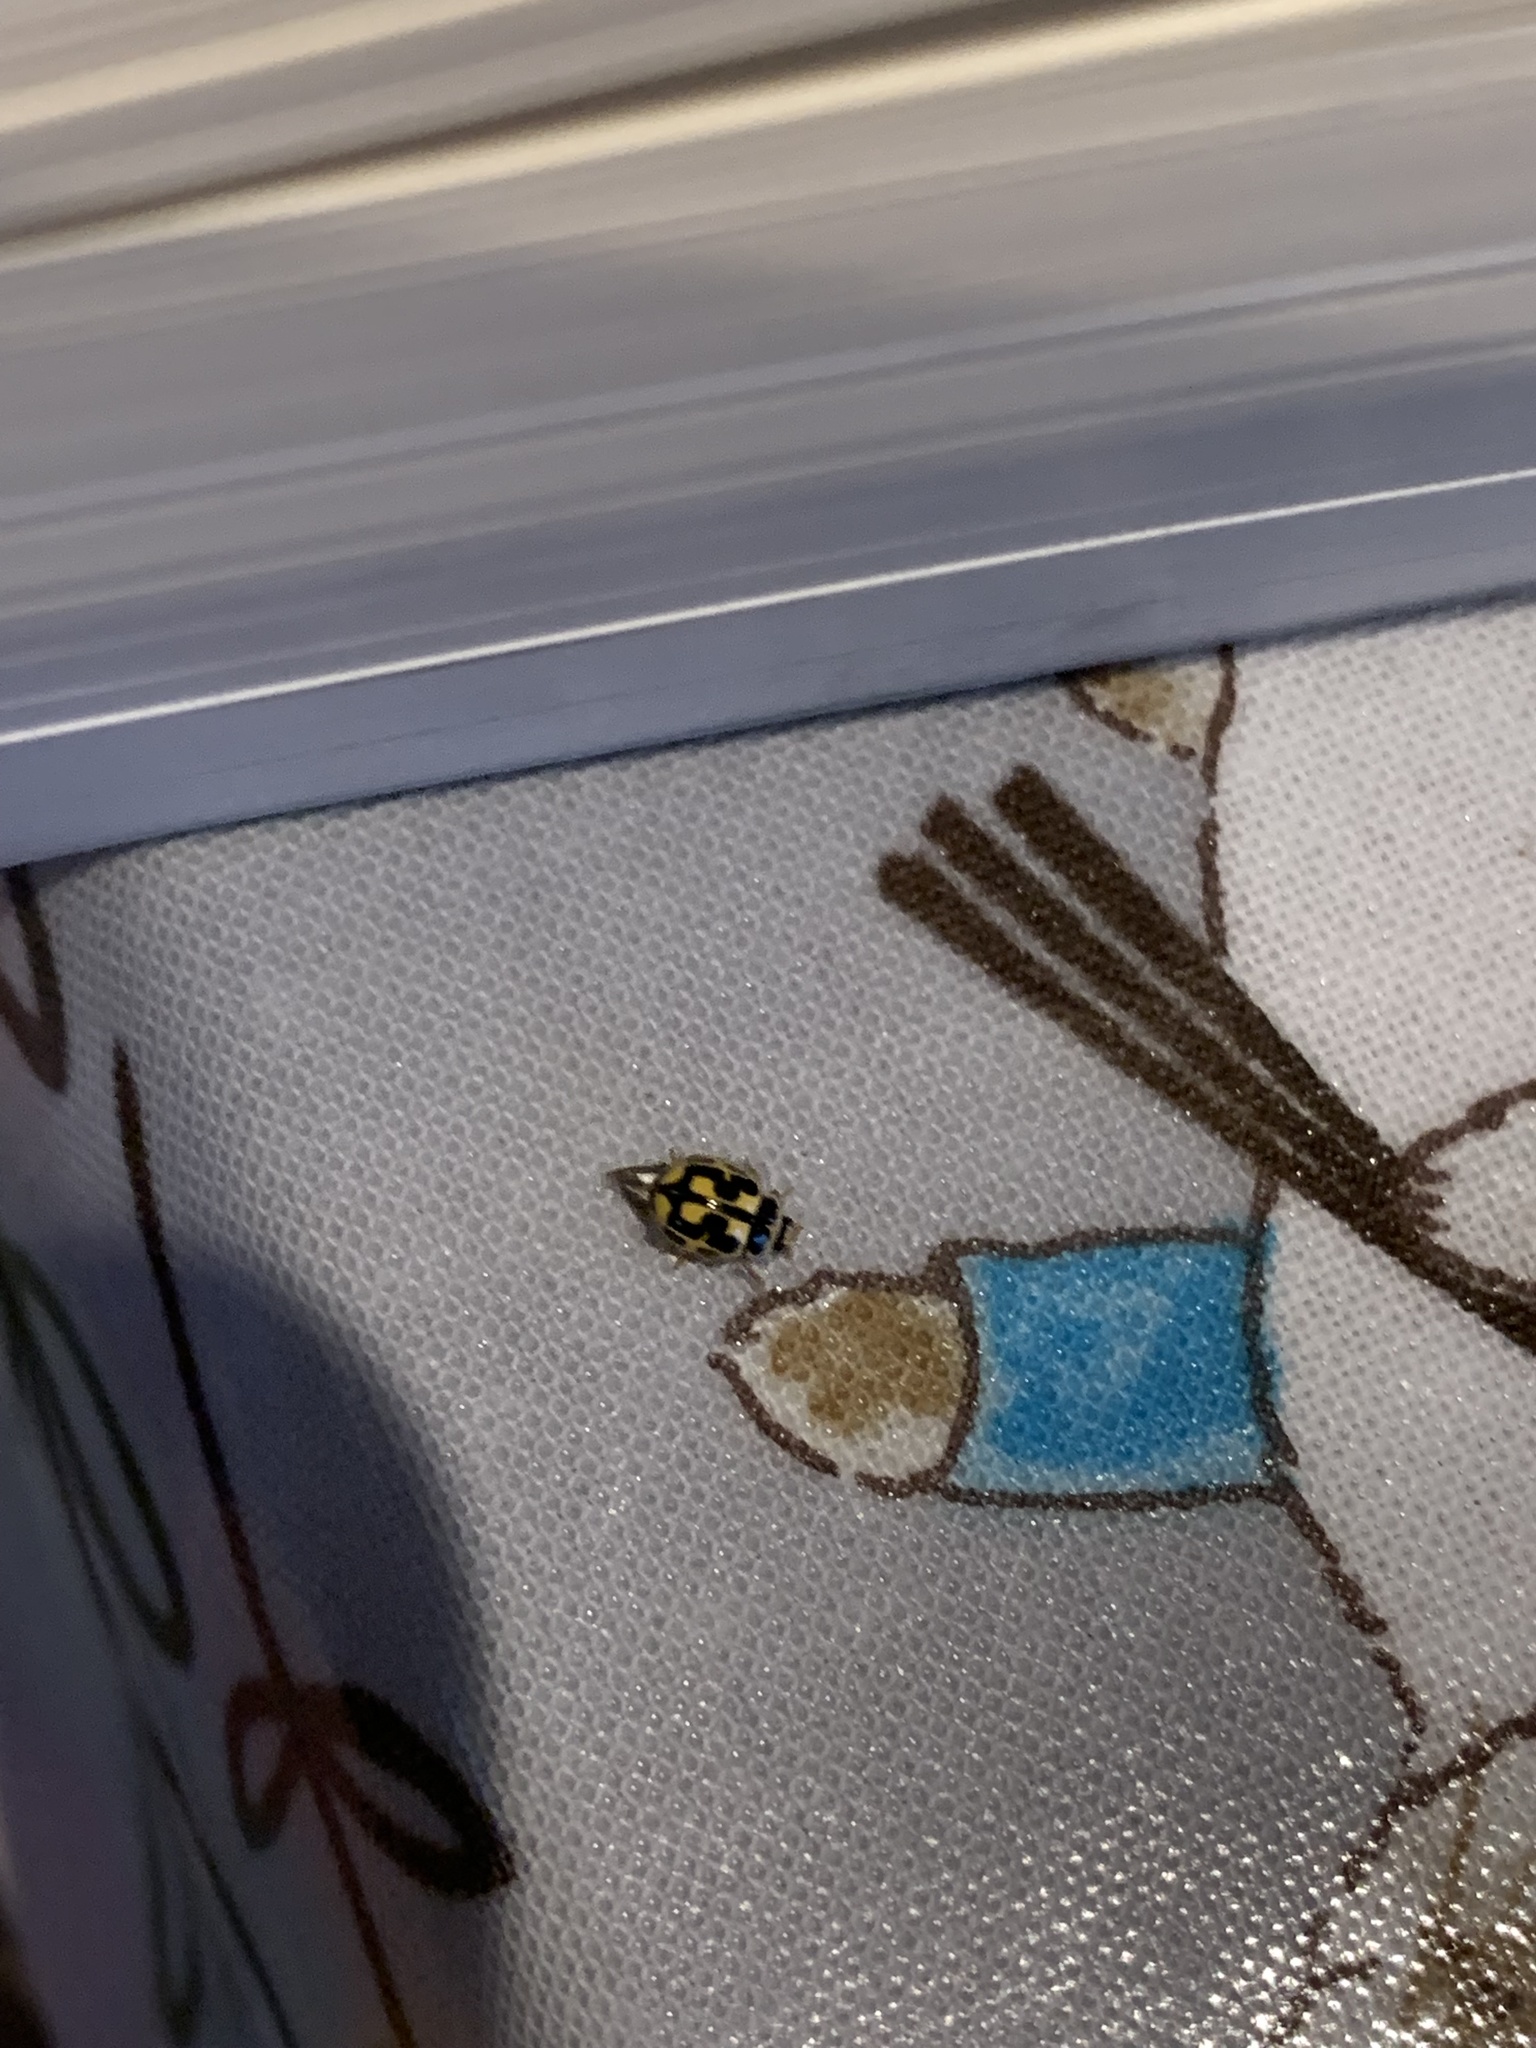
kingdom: Animalia
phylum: Arthropoda
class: Insecta
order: Coleoptera
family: Coccinellidae
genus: Propylaea
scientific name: Propylaea quatuordecimpunctata
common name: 14-spotted ladybird beetle
